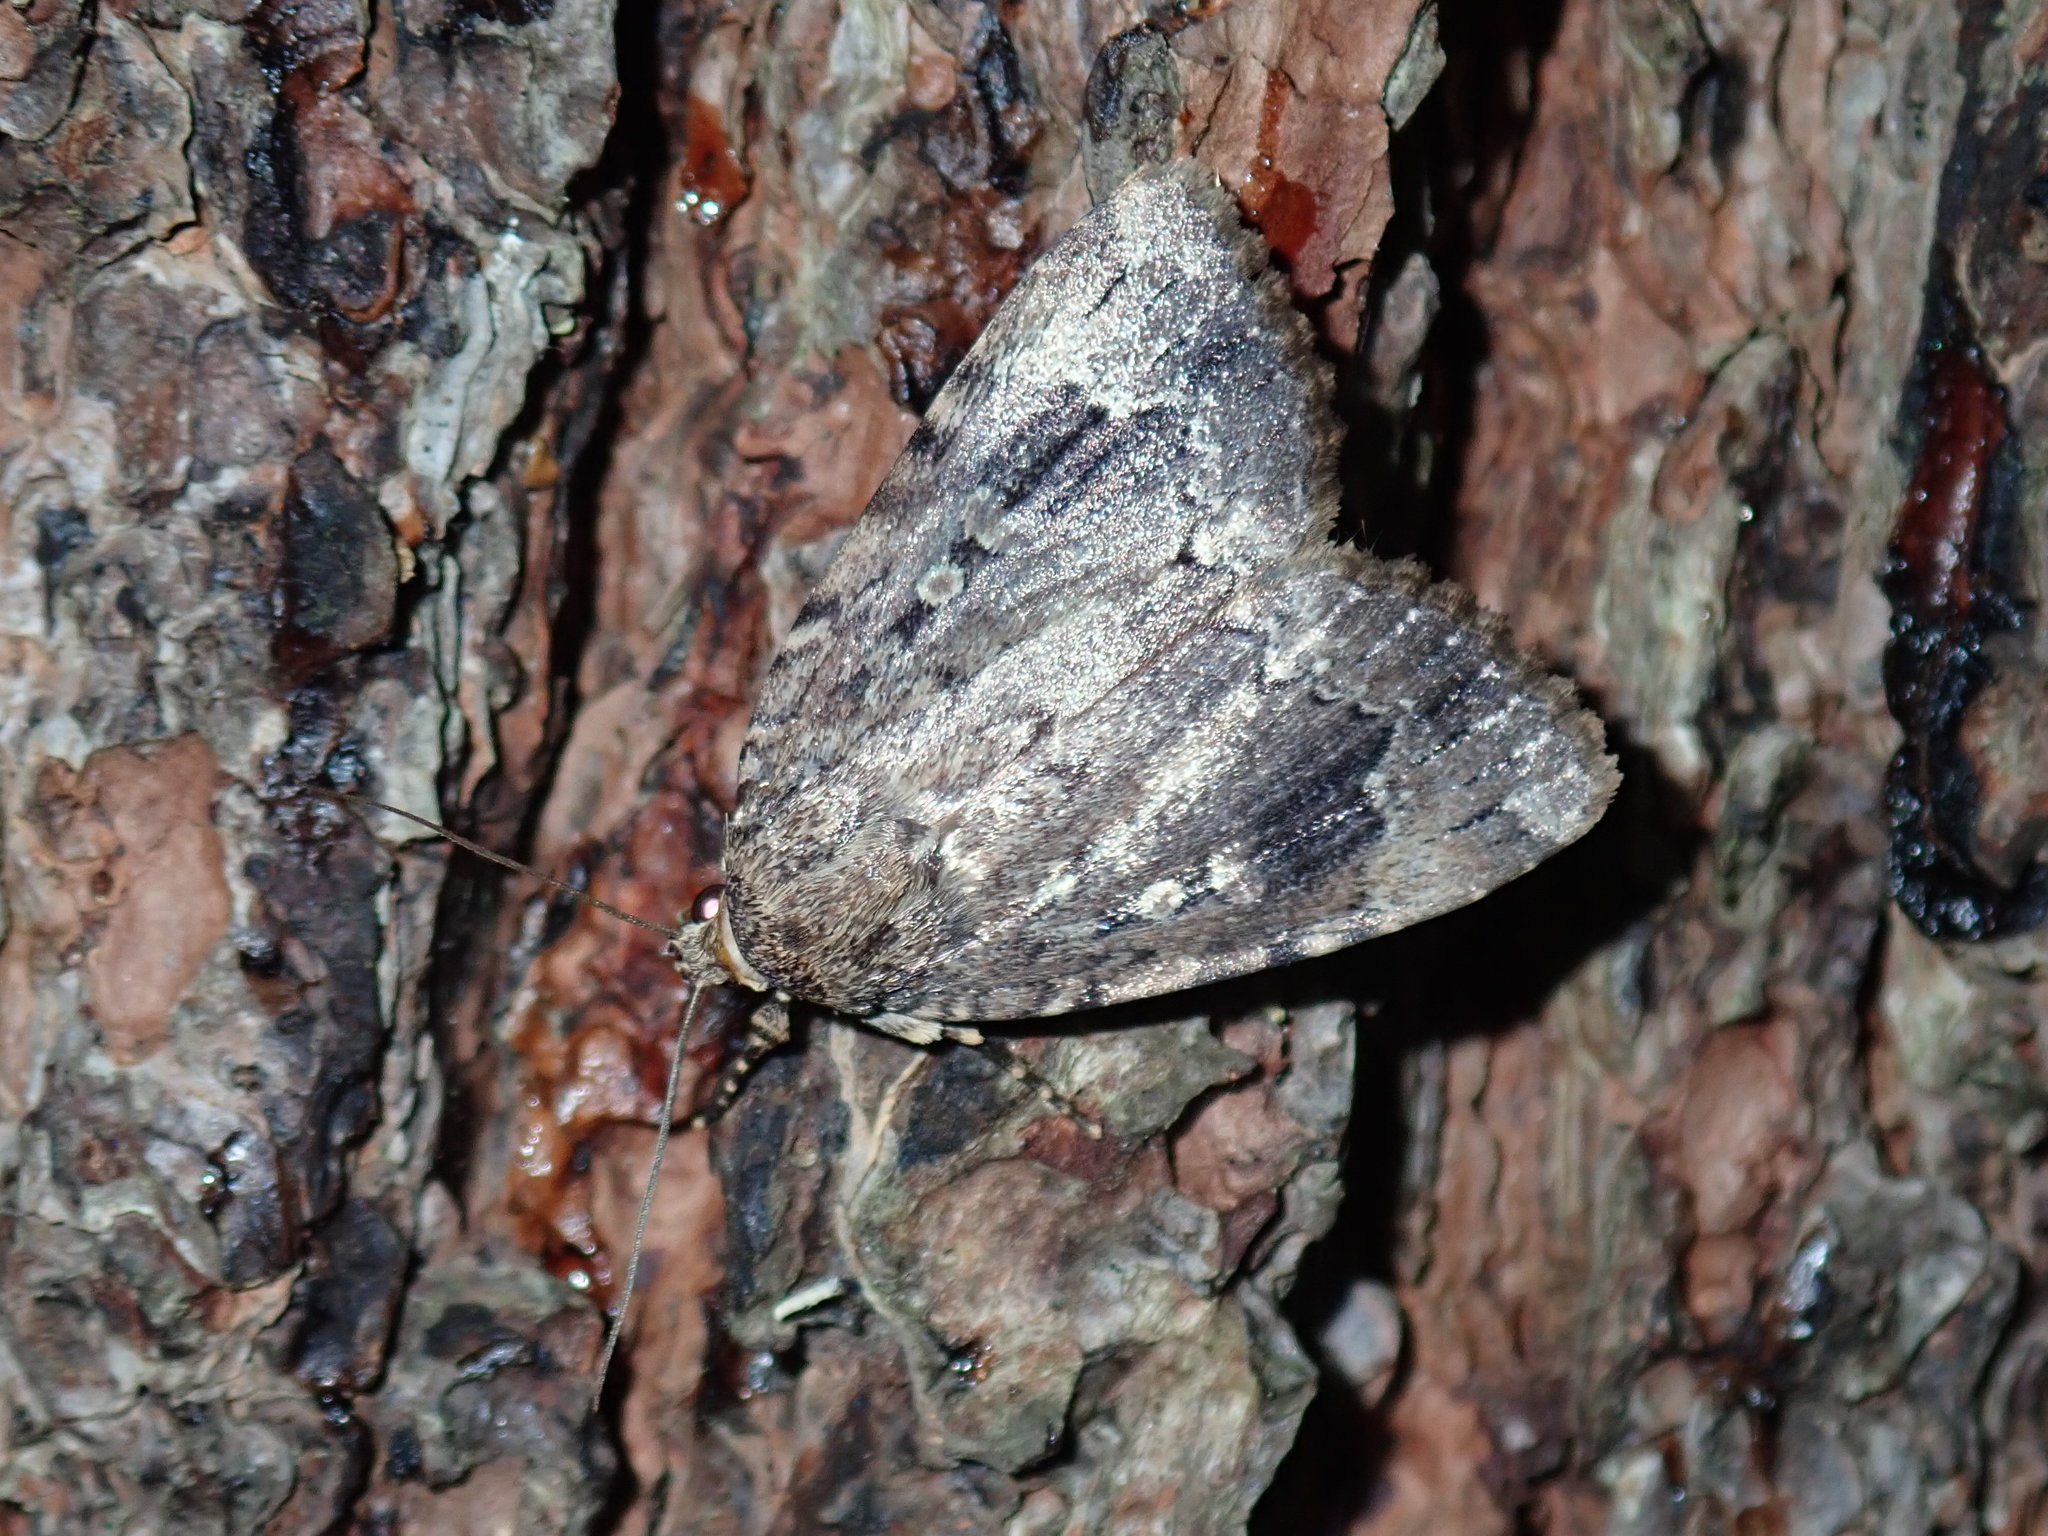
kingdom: Animalia
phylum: Arthropoda
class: Insecta
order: Lepidoptera
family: Noctuidae
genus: Amphipyra
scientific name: Amphipyra pyramidoides
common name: American copper underwing
